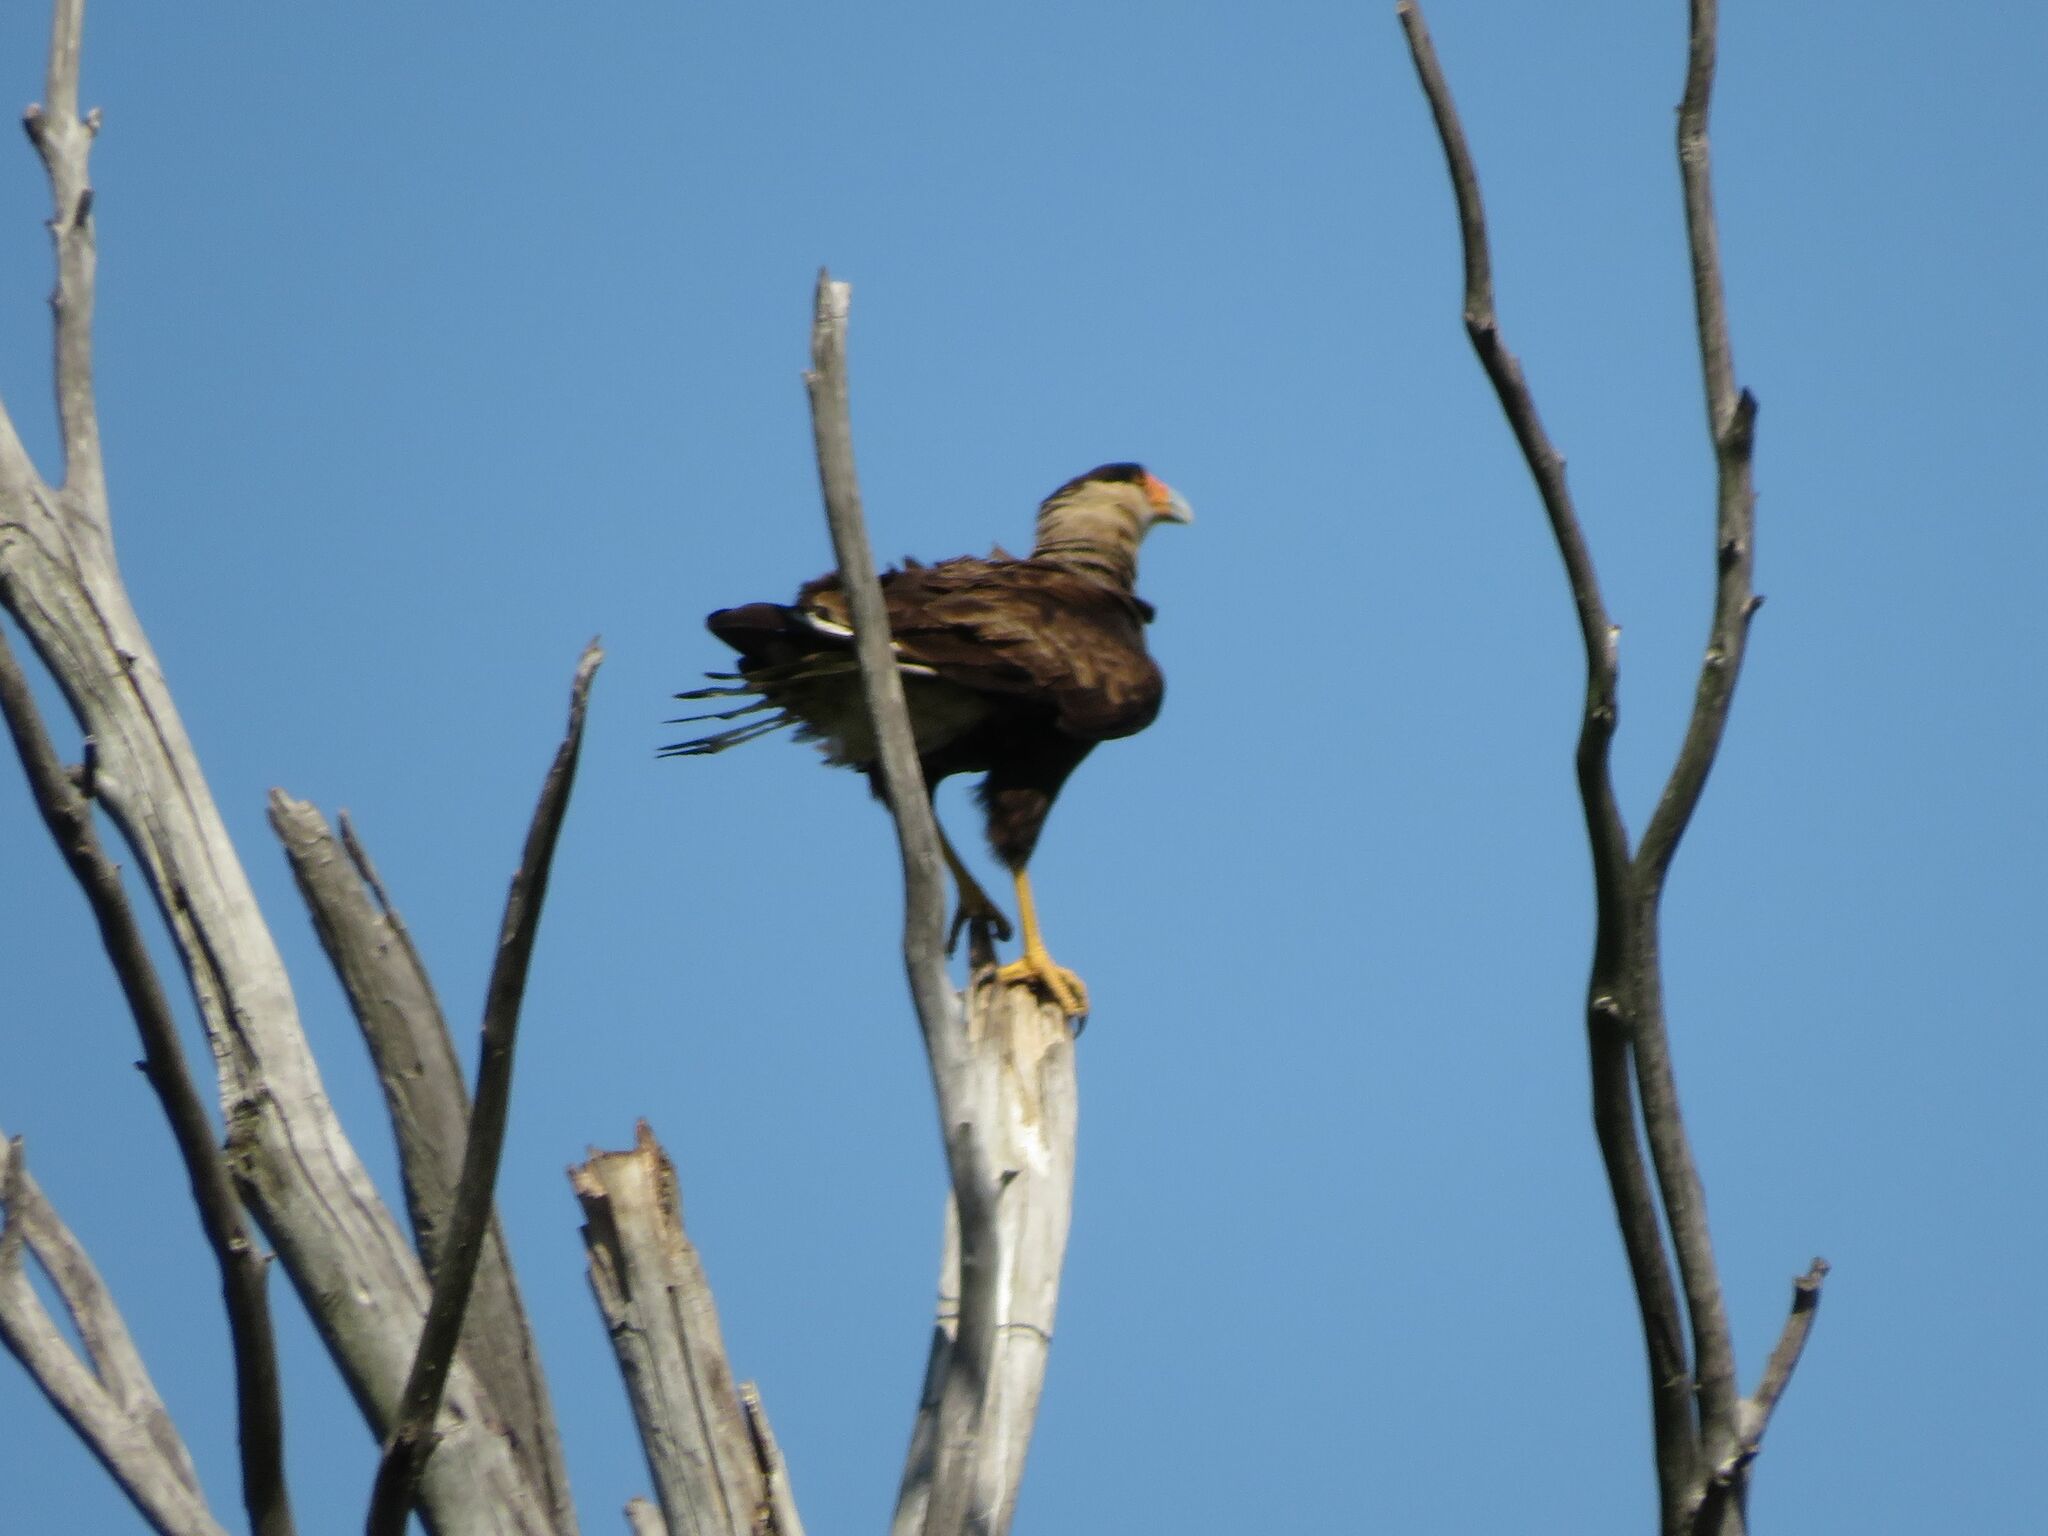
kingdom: Animalia
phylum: Chordata
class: Aves
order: Falconiformes
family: Falconidae
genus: Caracara
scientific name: Caracara plancus
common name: Southern caracara
